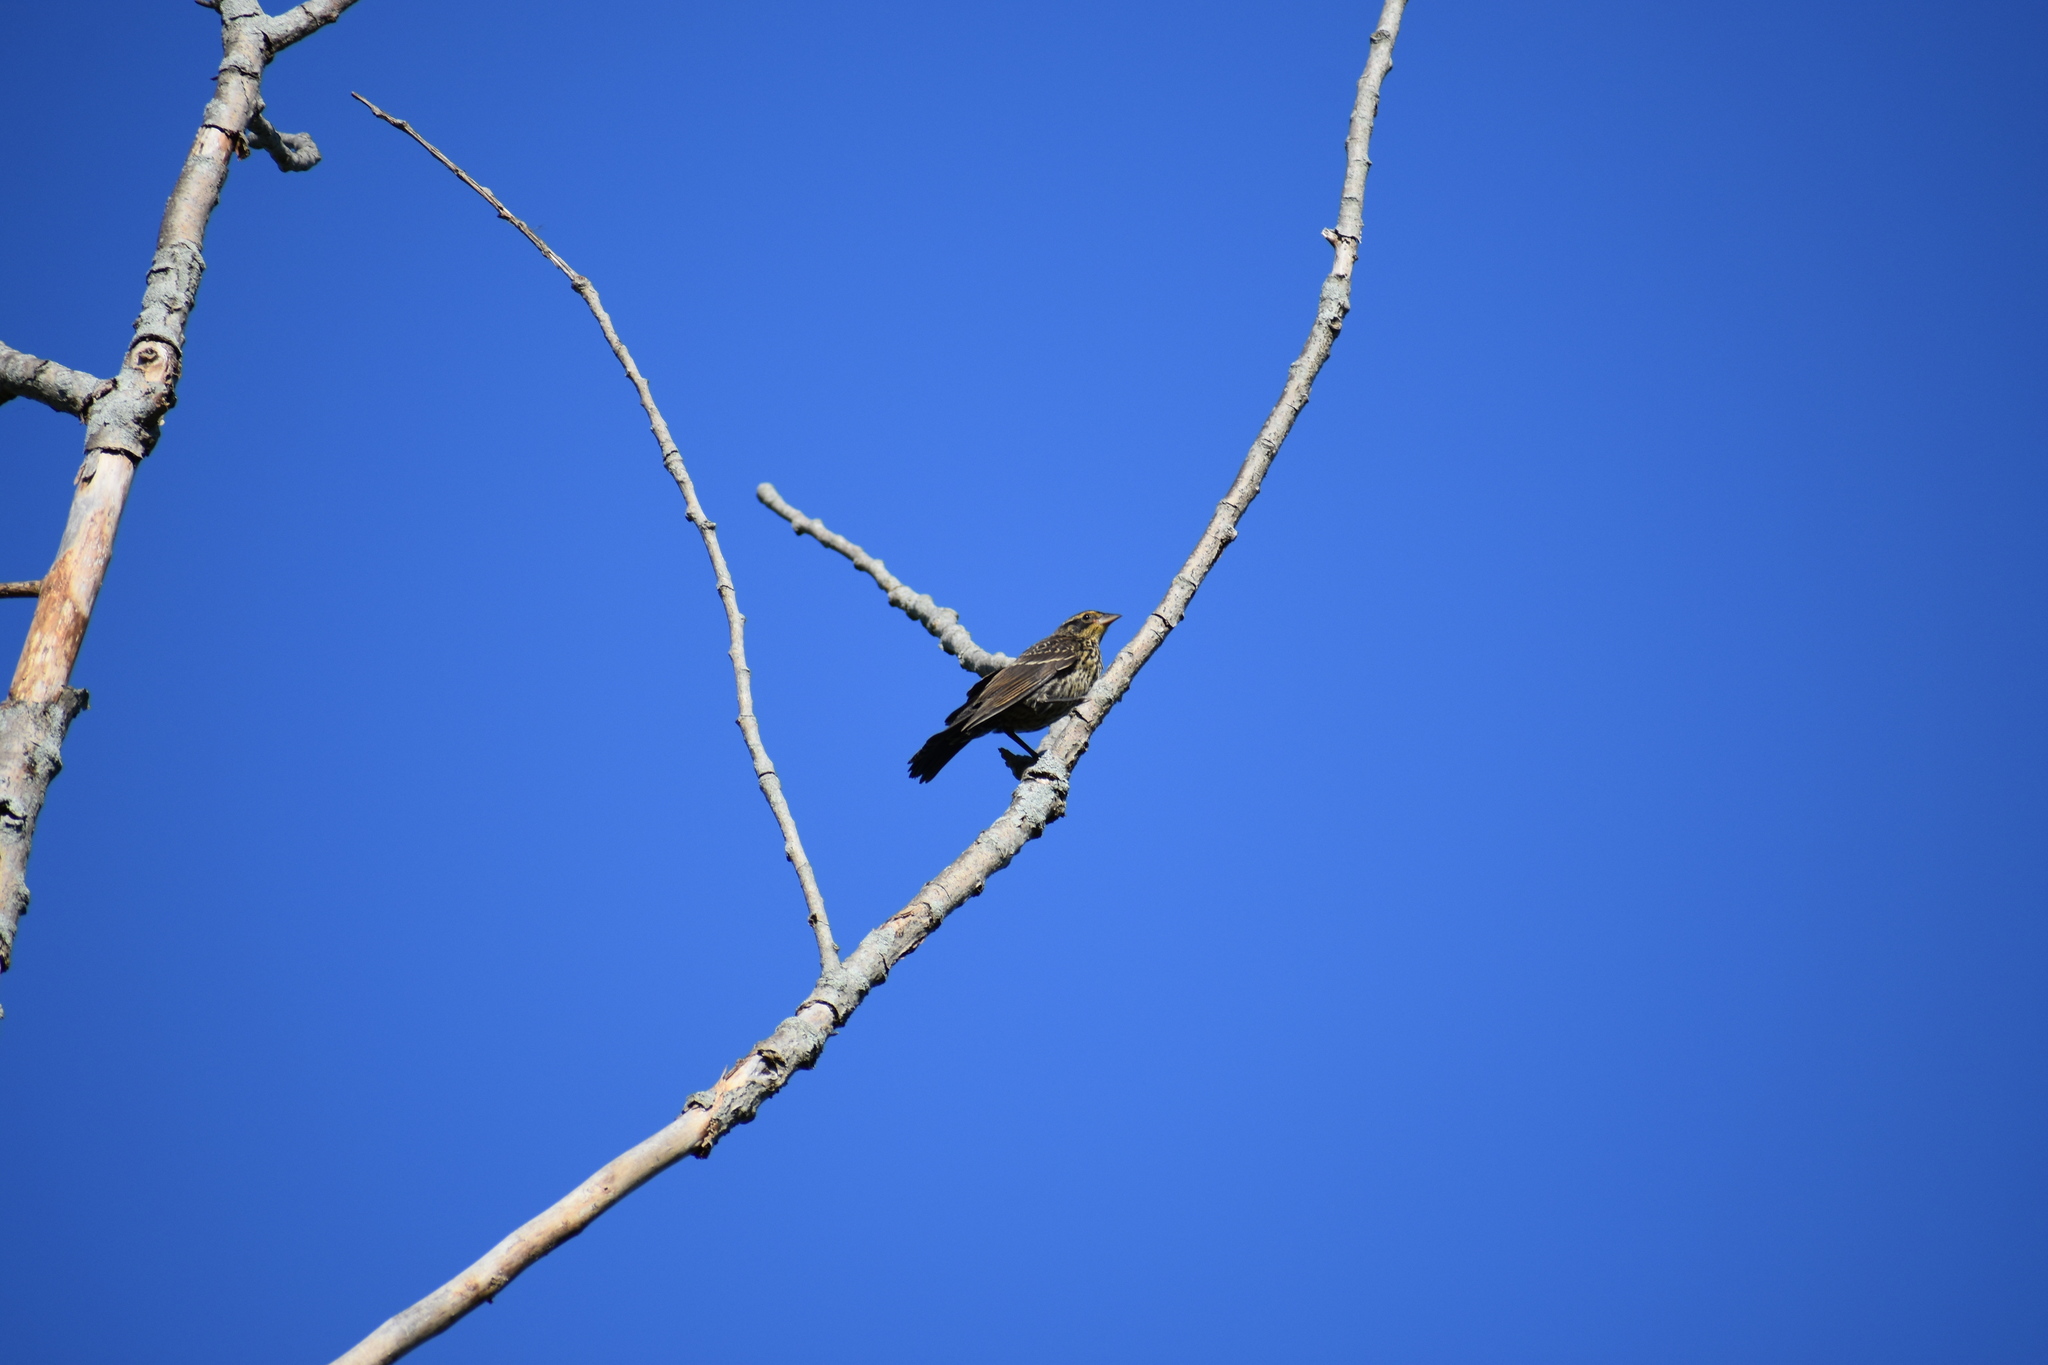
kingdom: Animalia
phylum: Chordata
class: Aves
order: Passeriformes
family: Icteridae
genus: Agelaius
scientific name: Agelaius phoeniceus
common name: Red-winged blackbird
